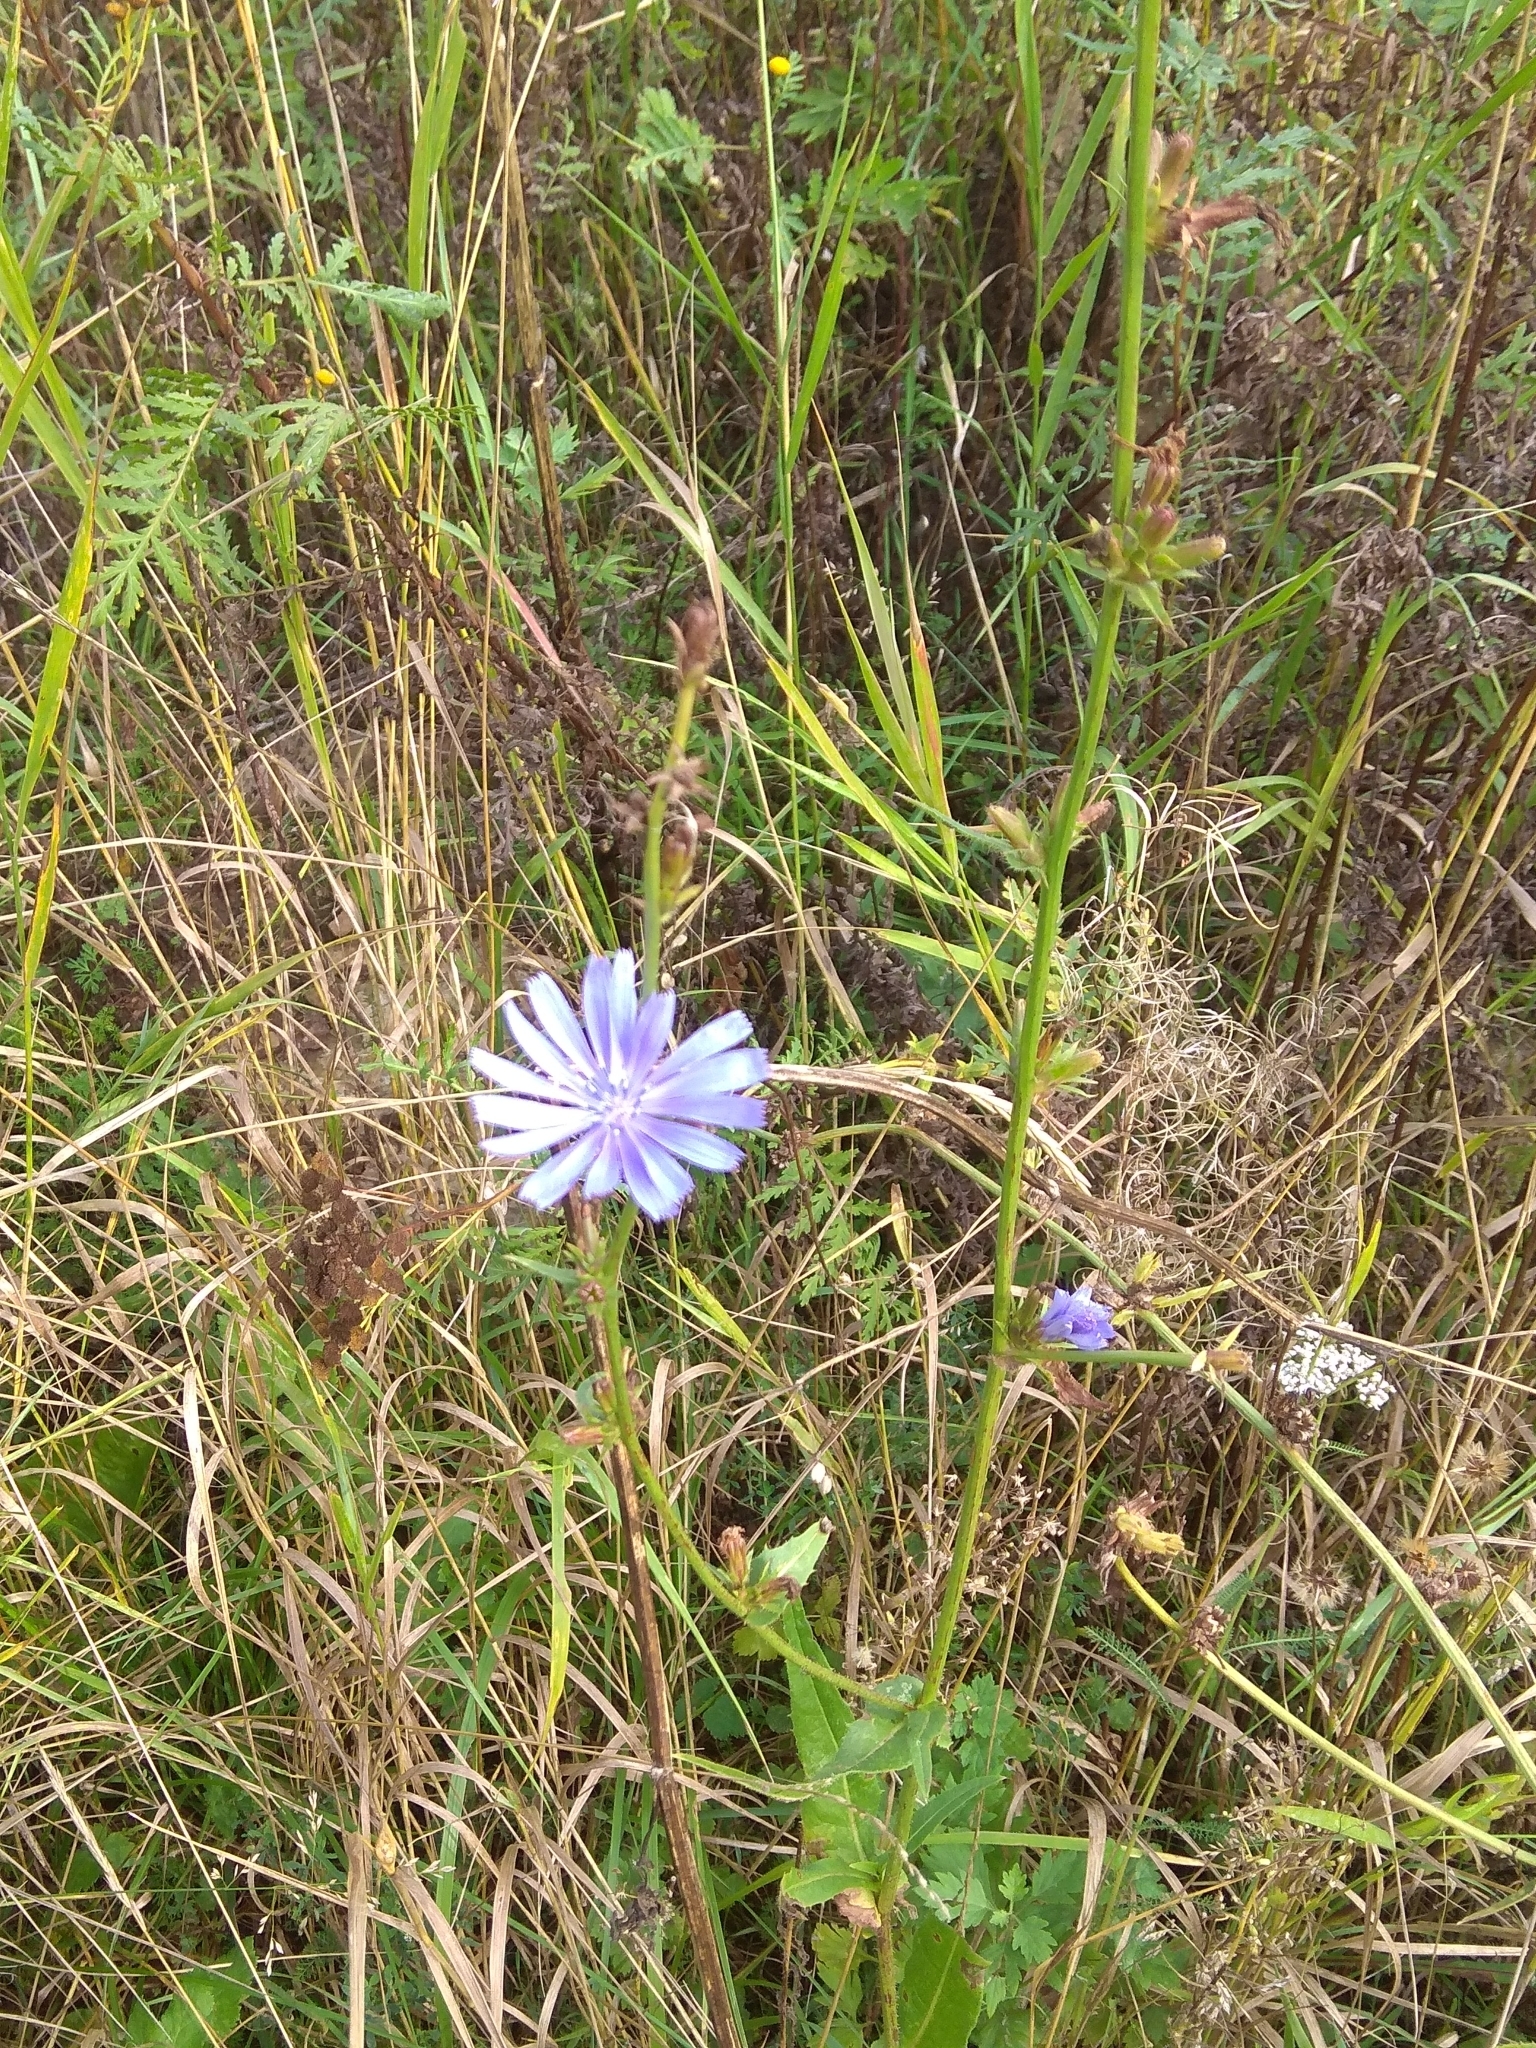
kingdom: Plantae
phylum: Tracheophyta
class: Magnoliopsida
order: Asterales
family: Asteraceae
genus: Cichorium
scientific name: Cichorium intybus
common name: Chicory
